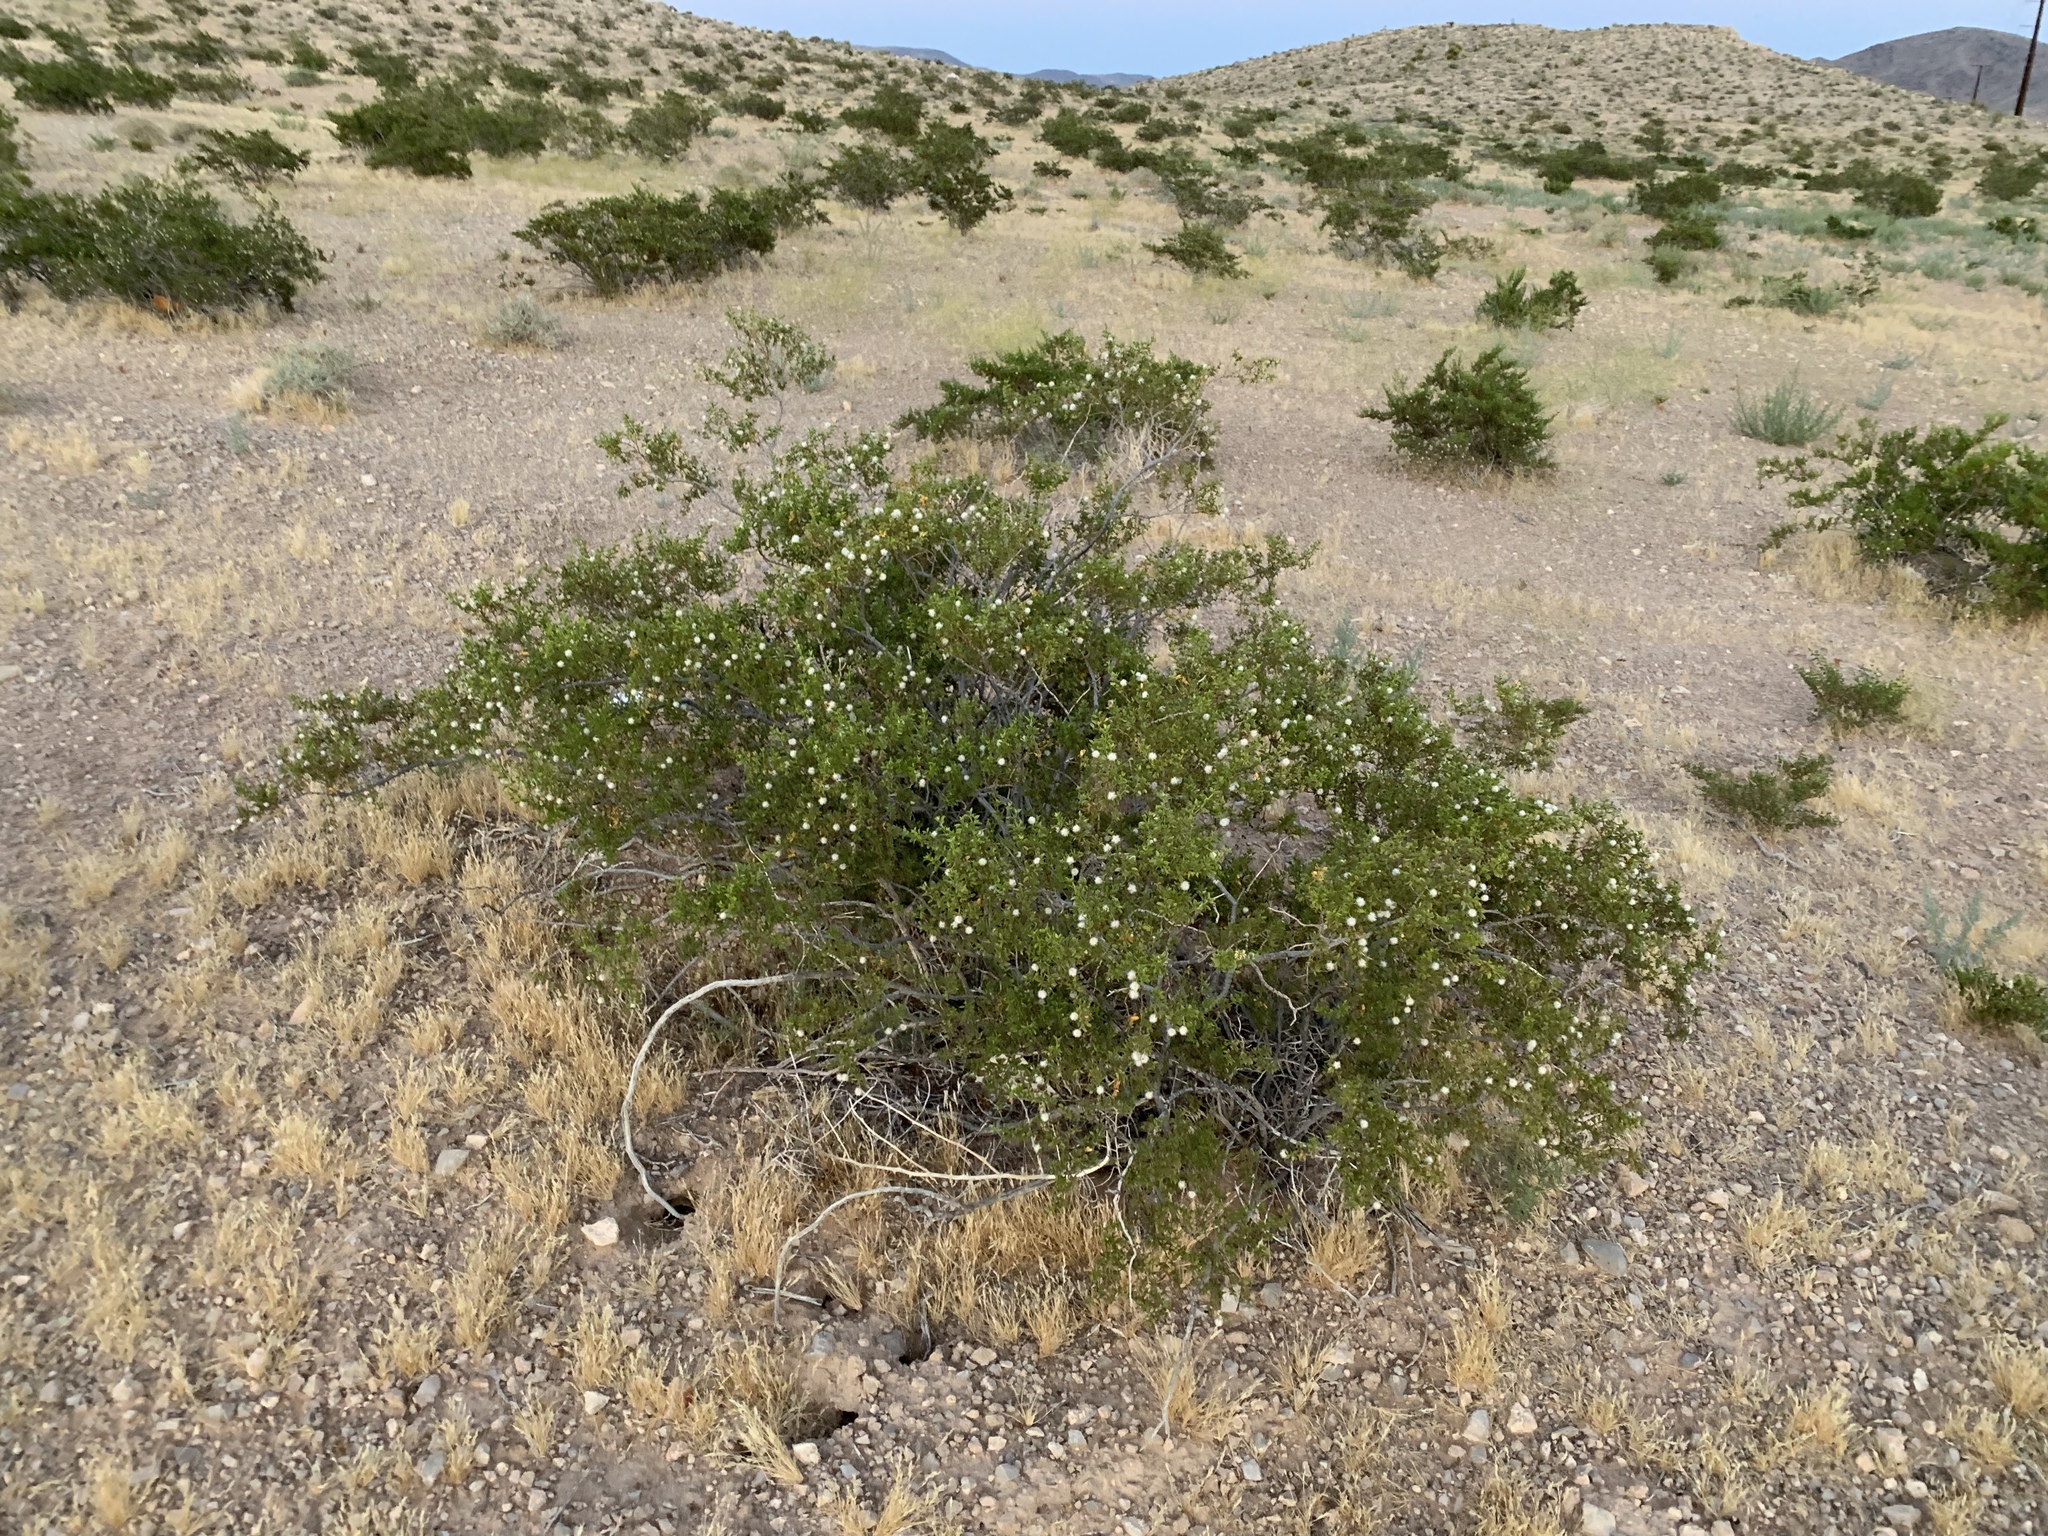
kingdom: Plantae
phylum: Tracheophyta
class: Magnoliopsida
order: Zygophyllales
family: Zygophyllaceae
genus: Larrea
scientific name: Larrea tridentata
